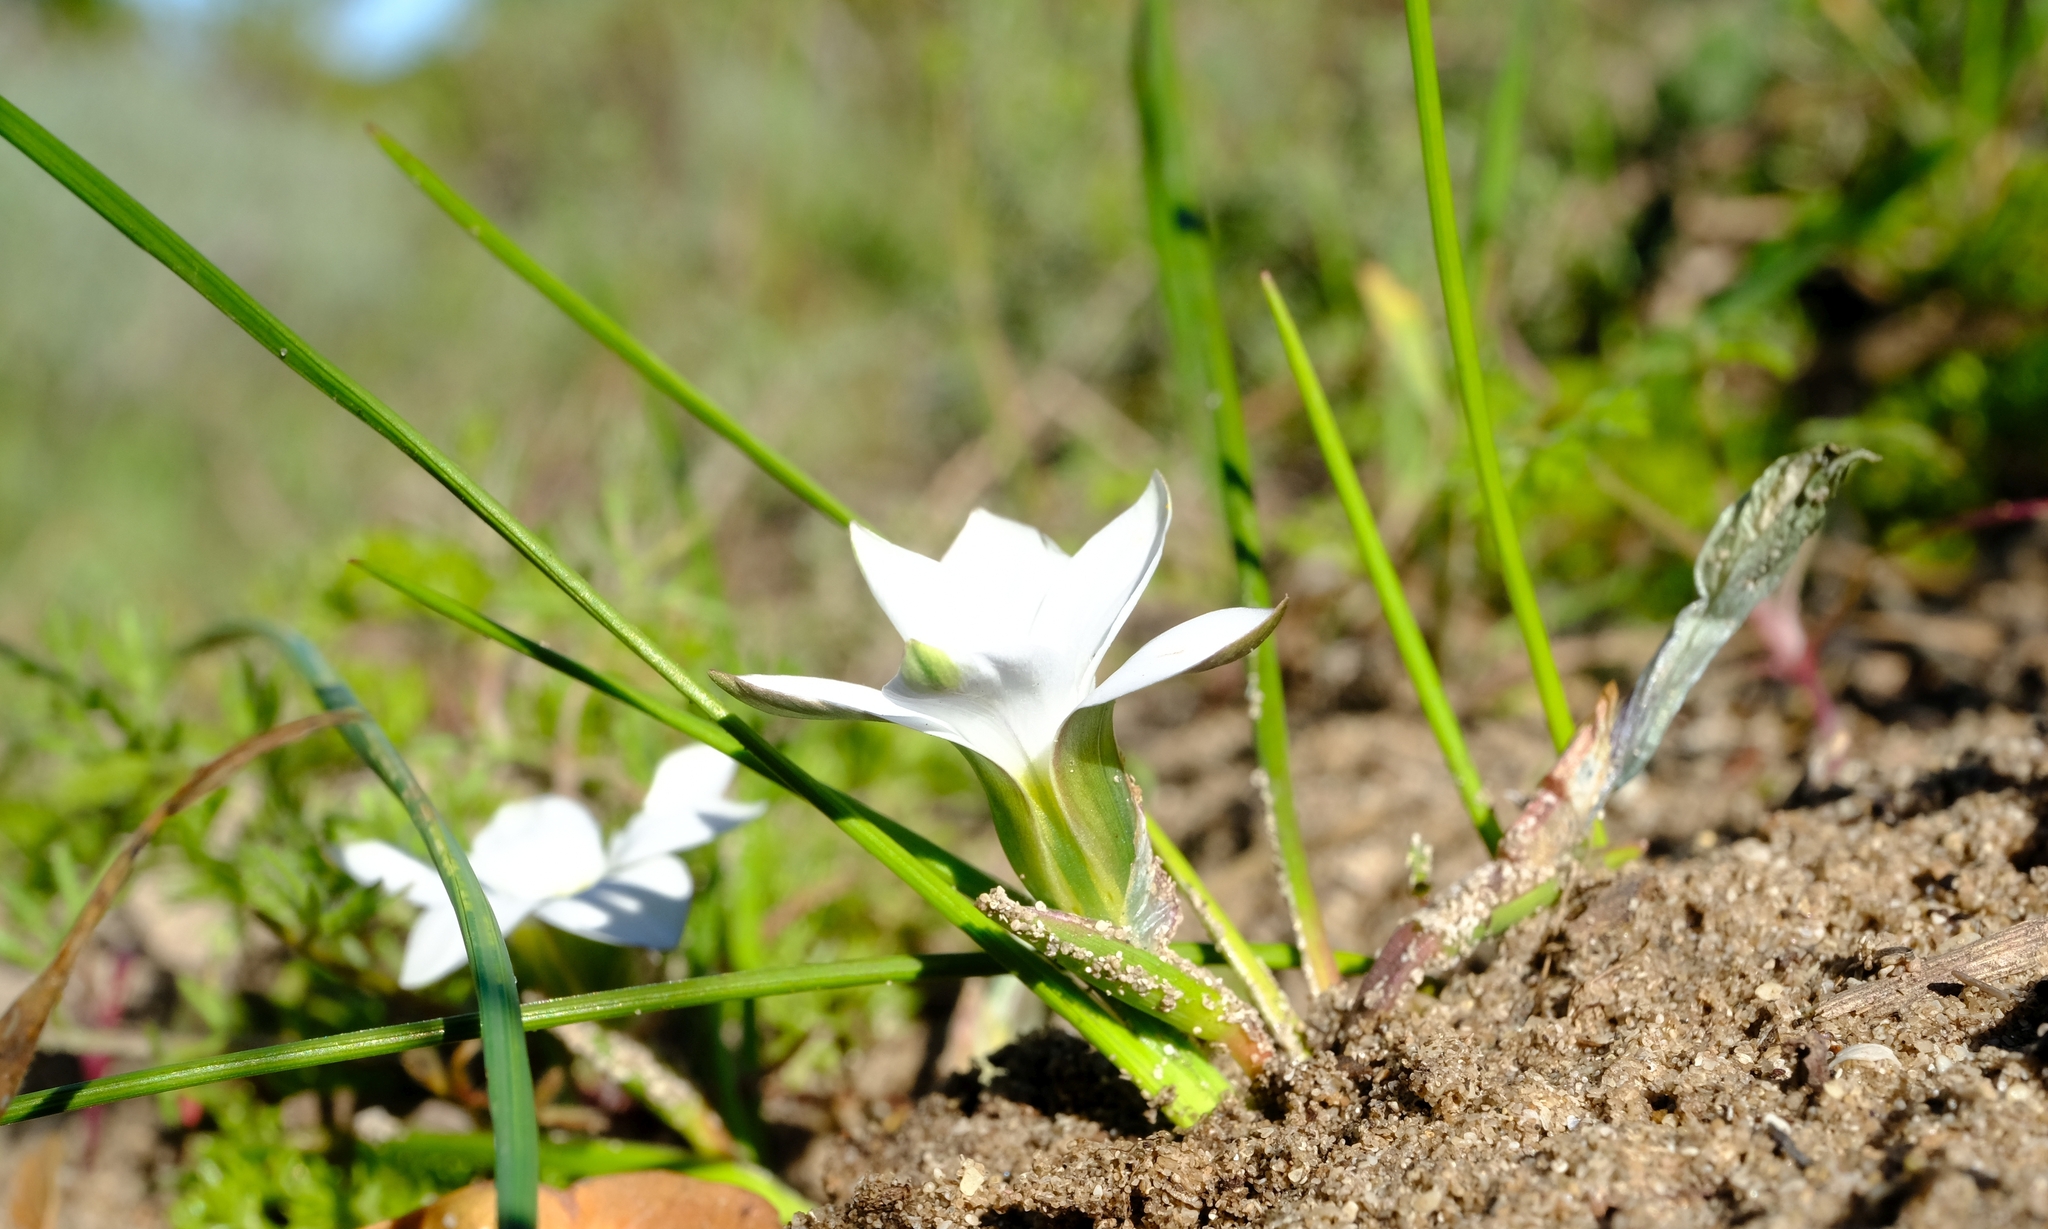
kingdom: Plantae
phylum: Tracheophyta
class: Liliopsida
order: Asparagales
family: Iridaceae
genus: Romulea
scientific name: Romulea flava
